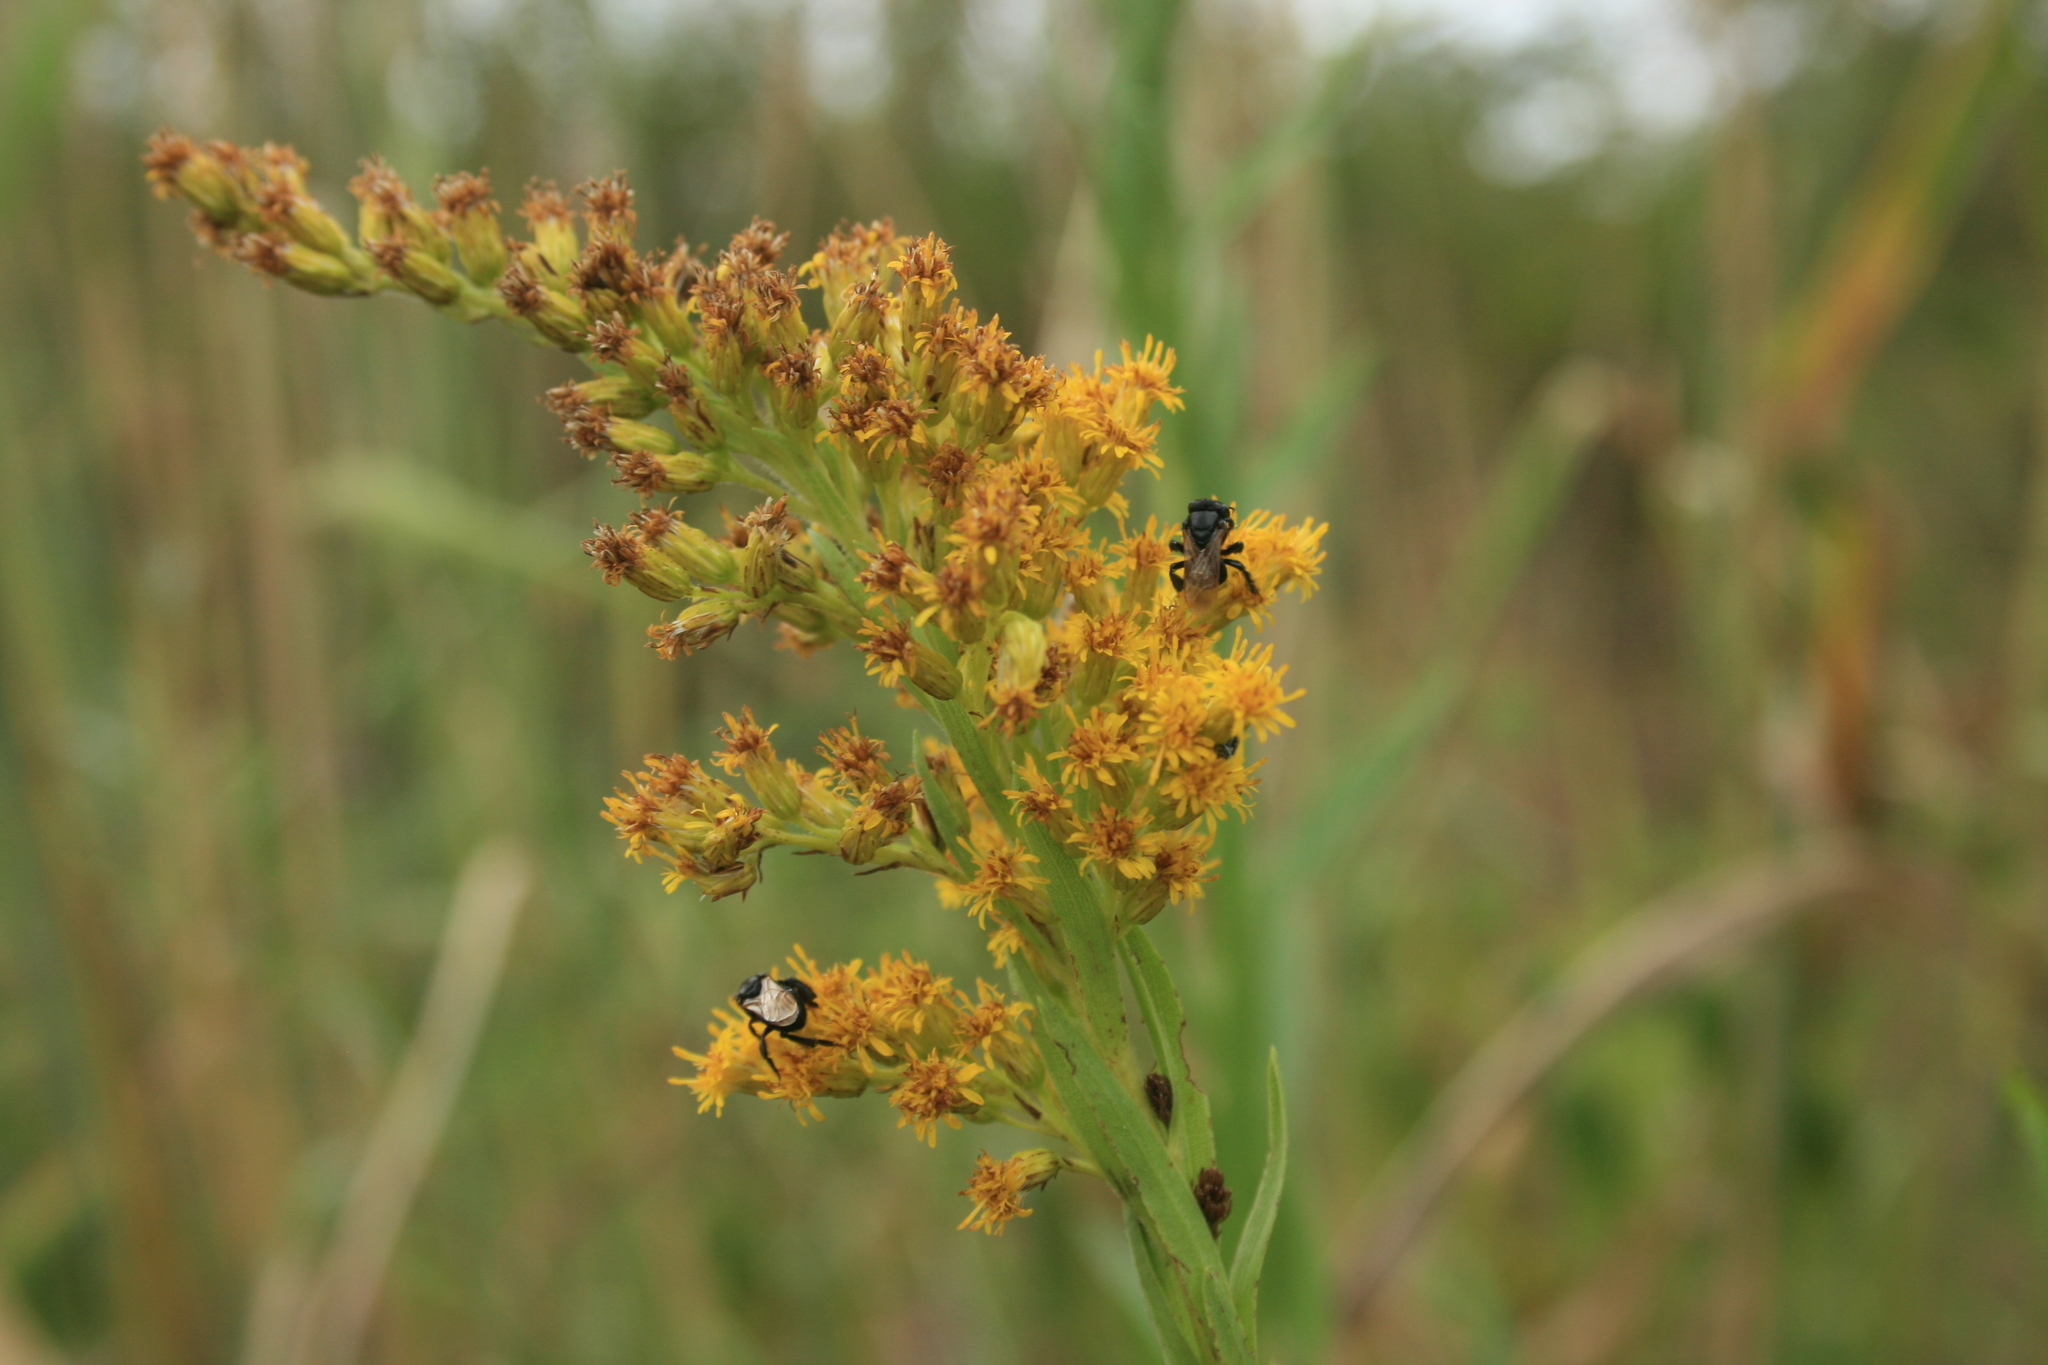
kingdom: Plantae
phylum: Tracheophyta
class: Magnoliopsida
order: Asterales
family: Asteraceae
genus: Solidago
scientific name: Solidago chilensis
